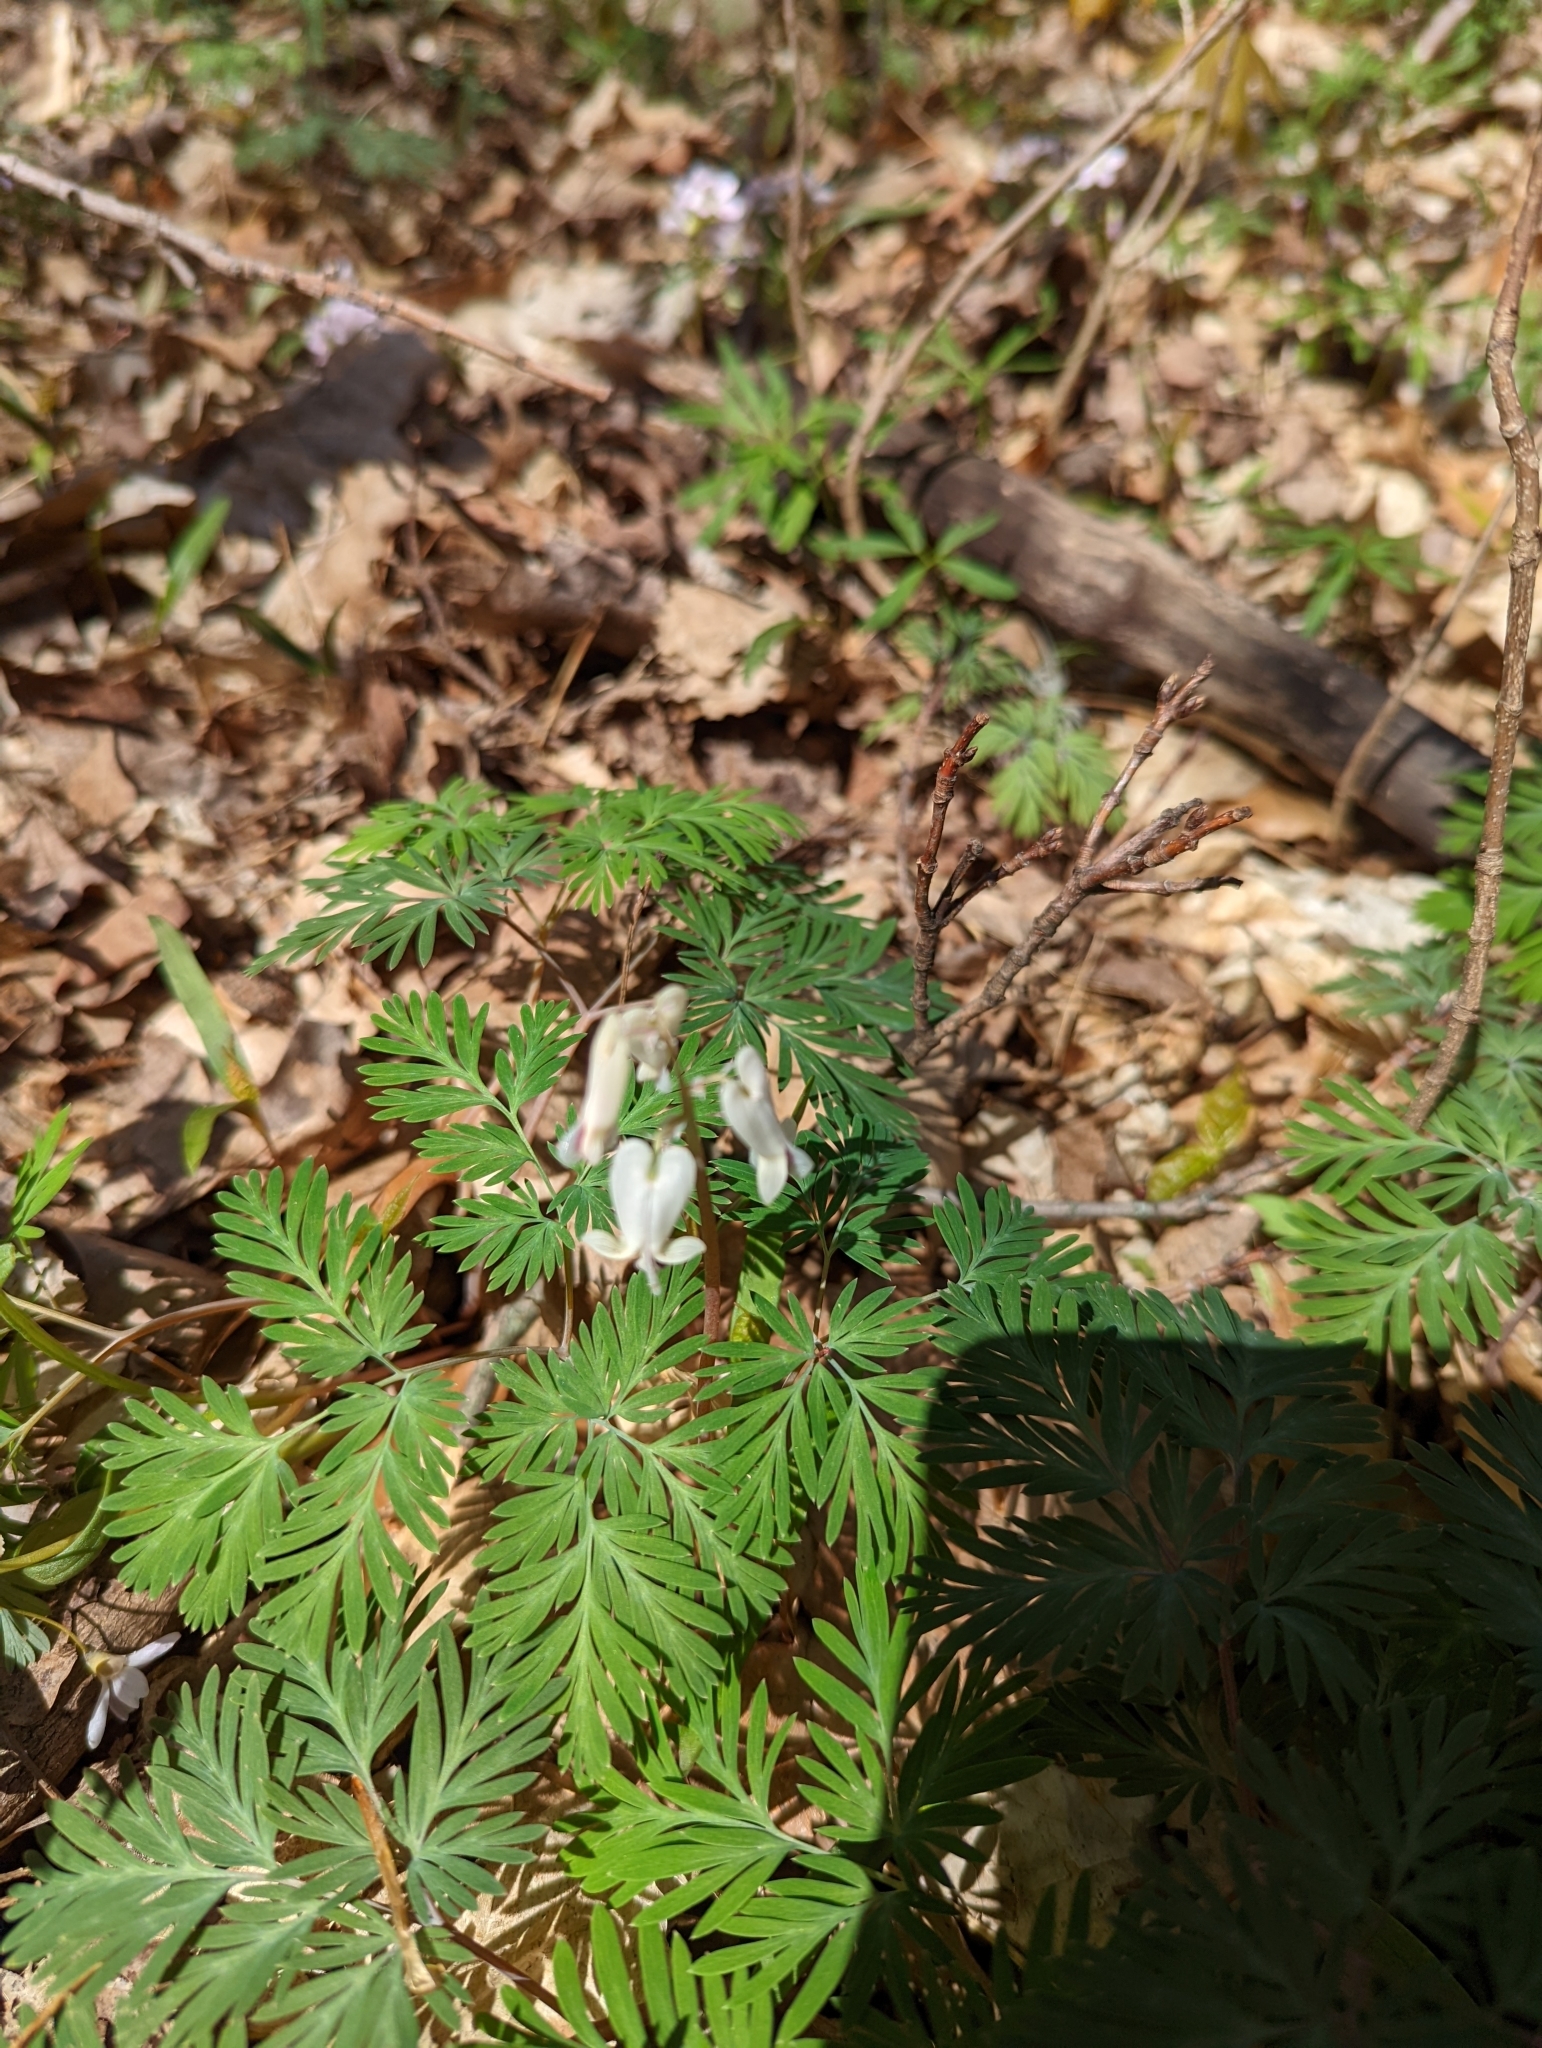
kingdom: Plantae
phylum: Tracheophyta
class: Magnoliopsida
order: Ranunculales
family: Papaveraceae
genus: Dicentra
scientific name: Dicentra canadensis
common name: Squirrel-corn
